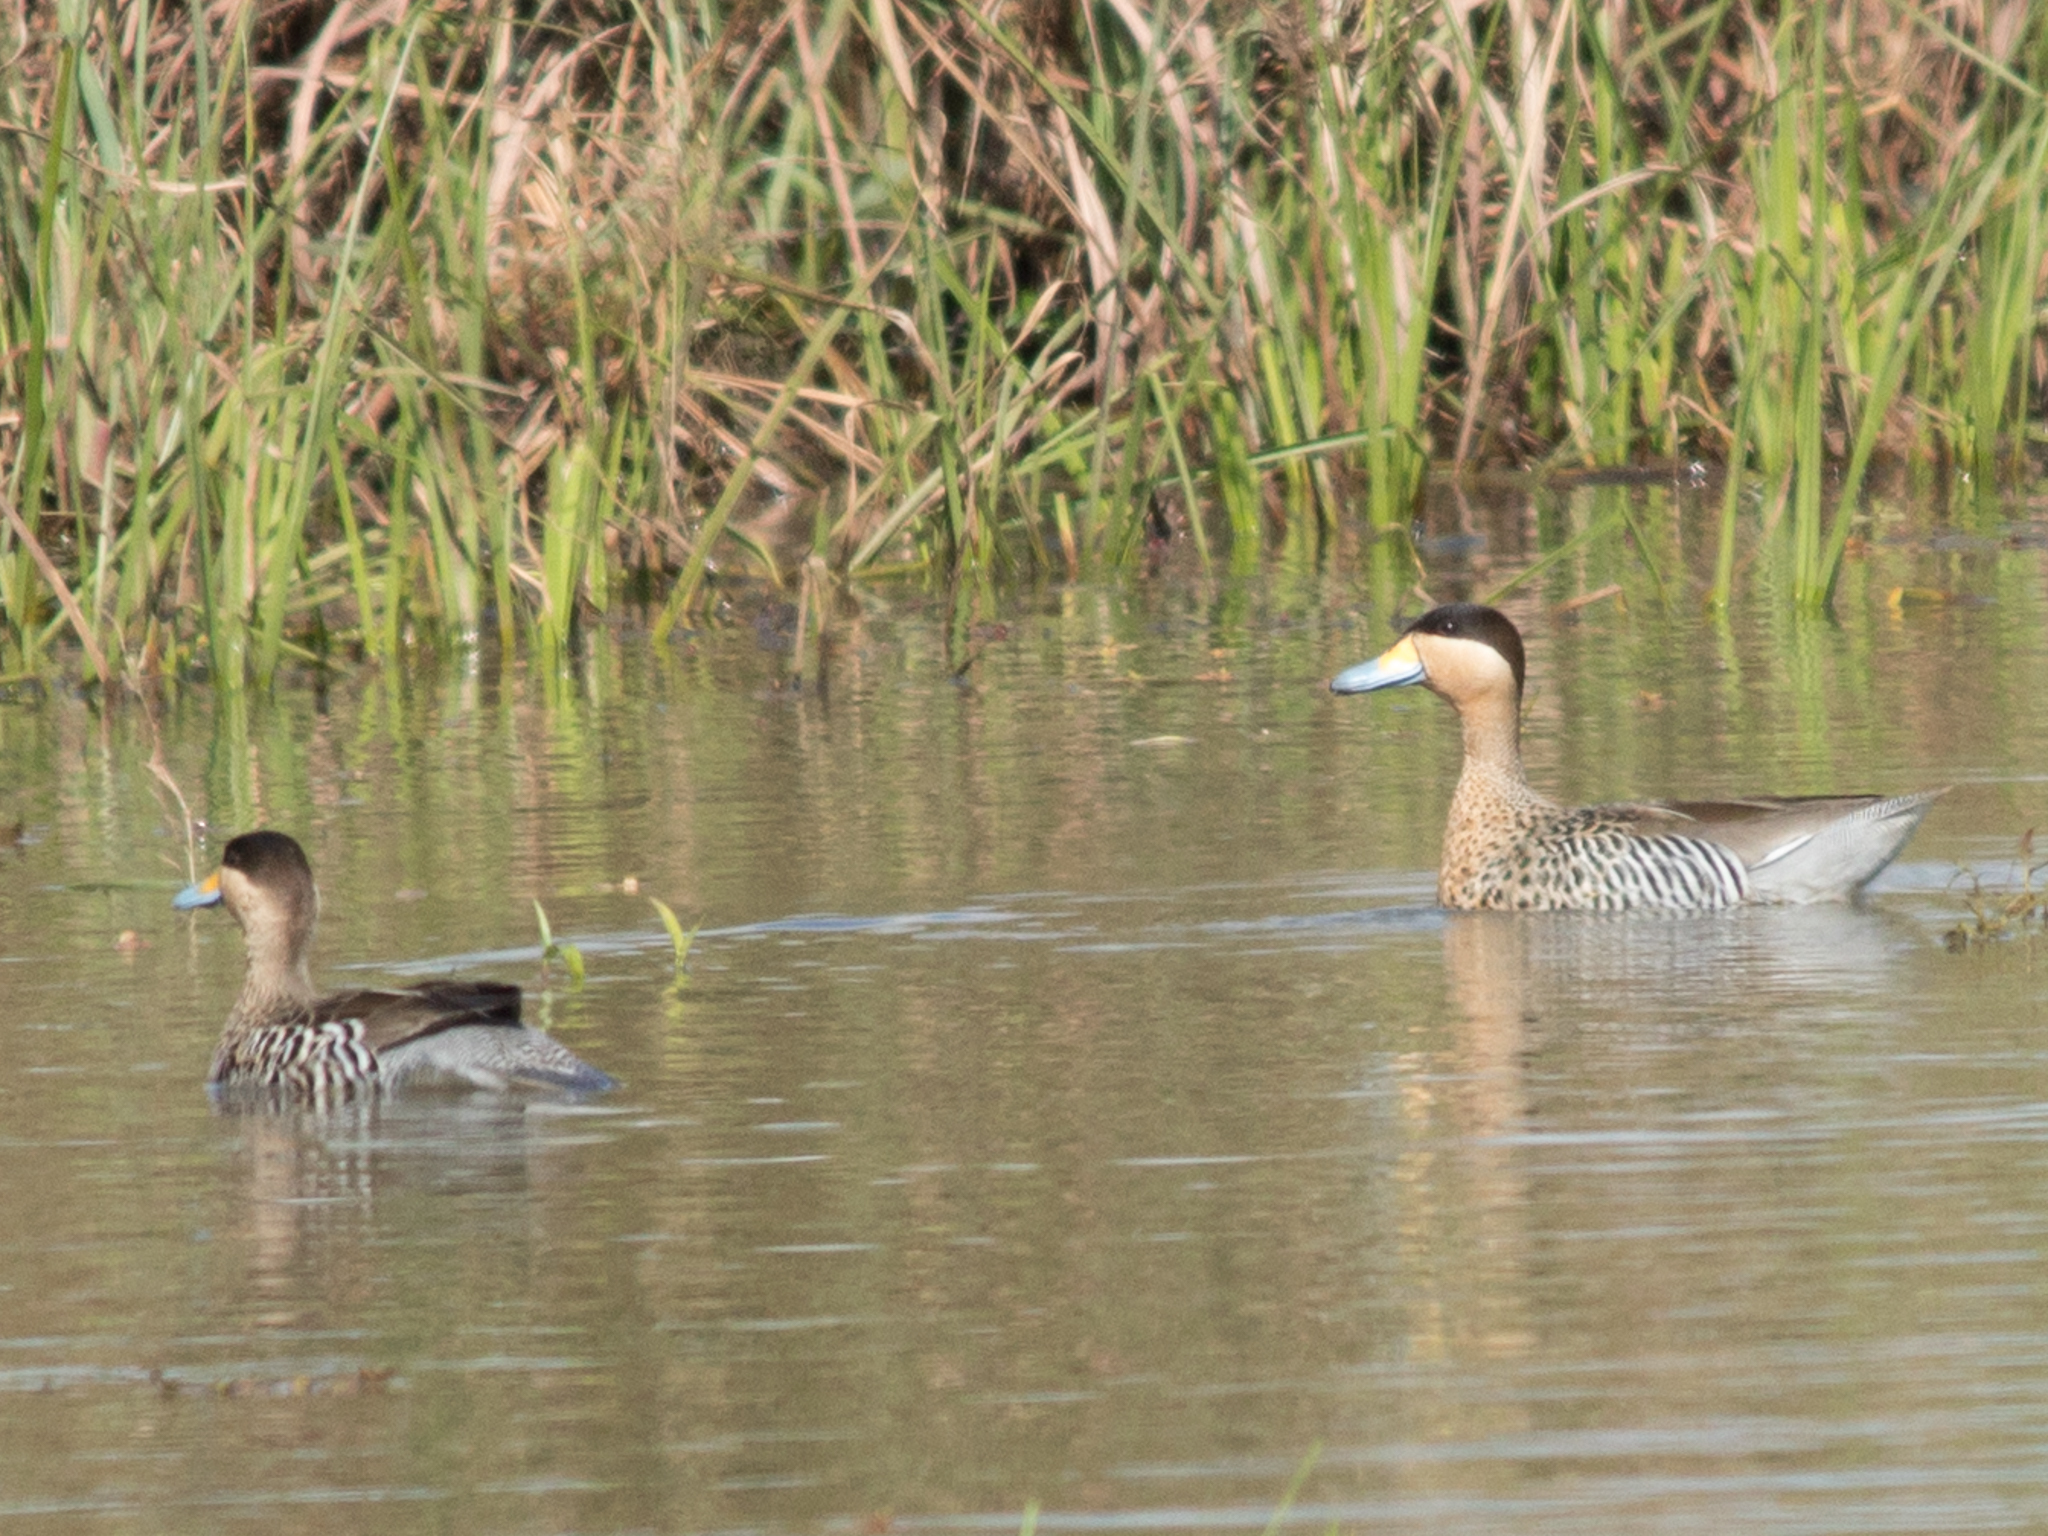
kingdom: Animalia
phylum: Chordata
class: Aves
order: Anseriformes
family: Anatidae
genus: Spatula
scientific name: Spatula versicolor
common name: Silver teal
